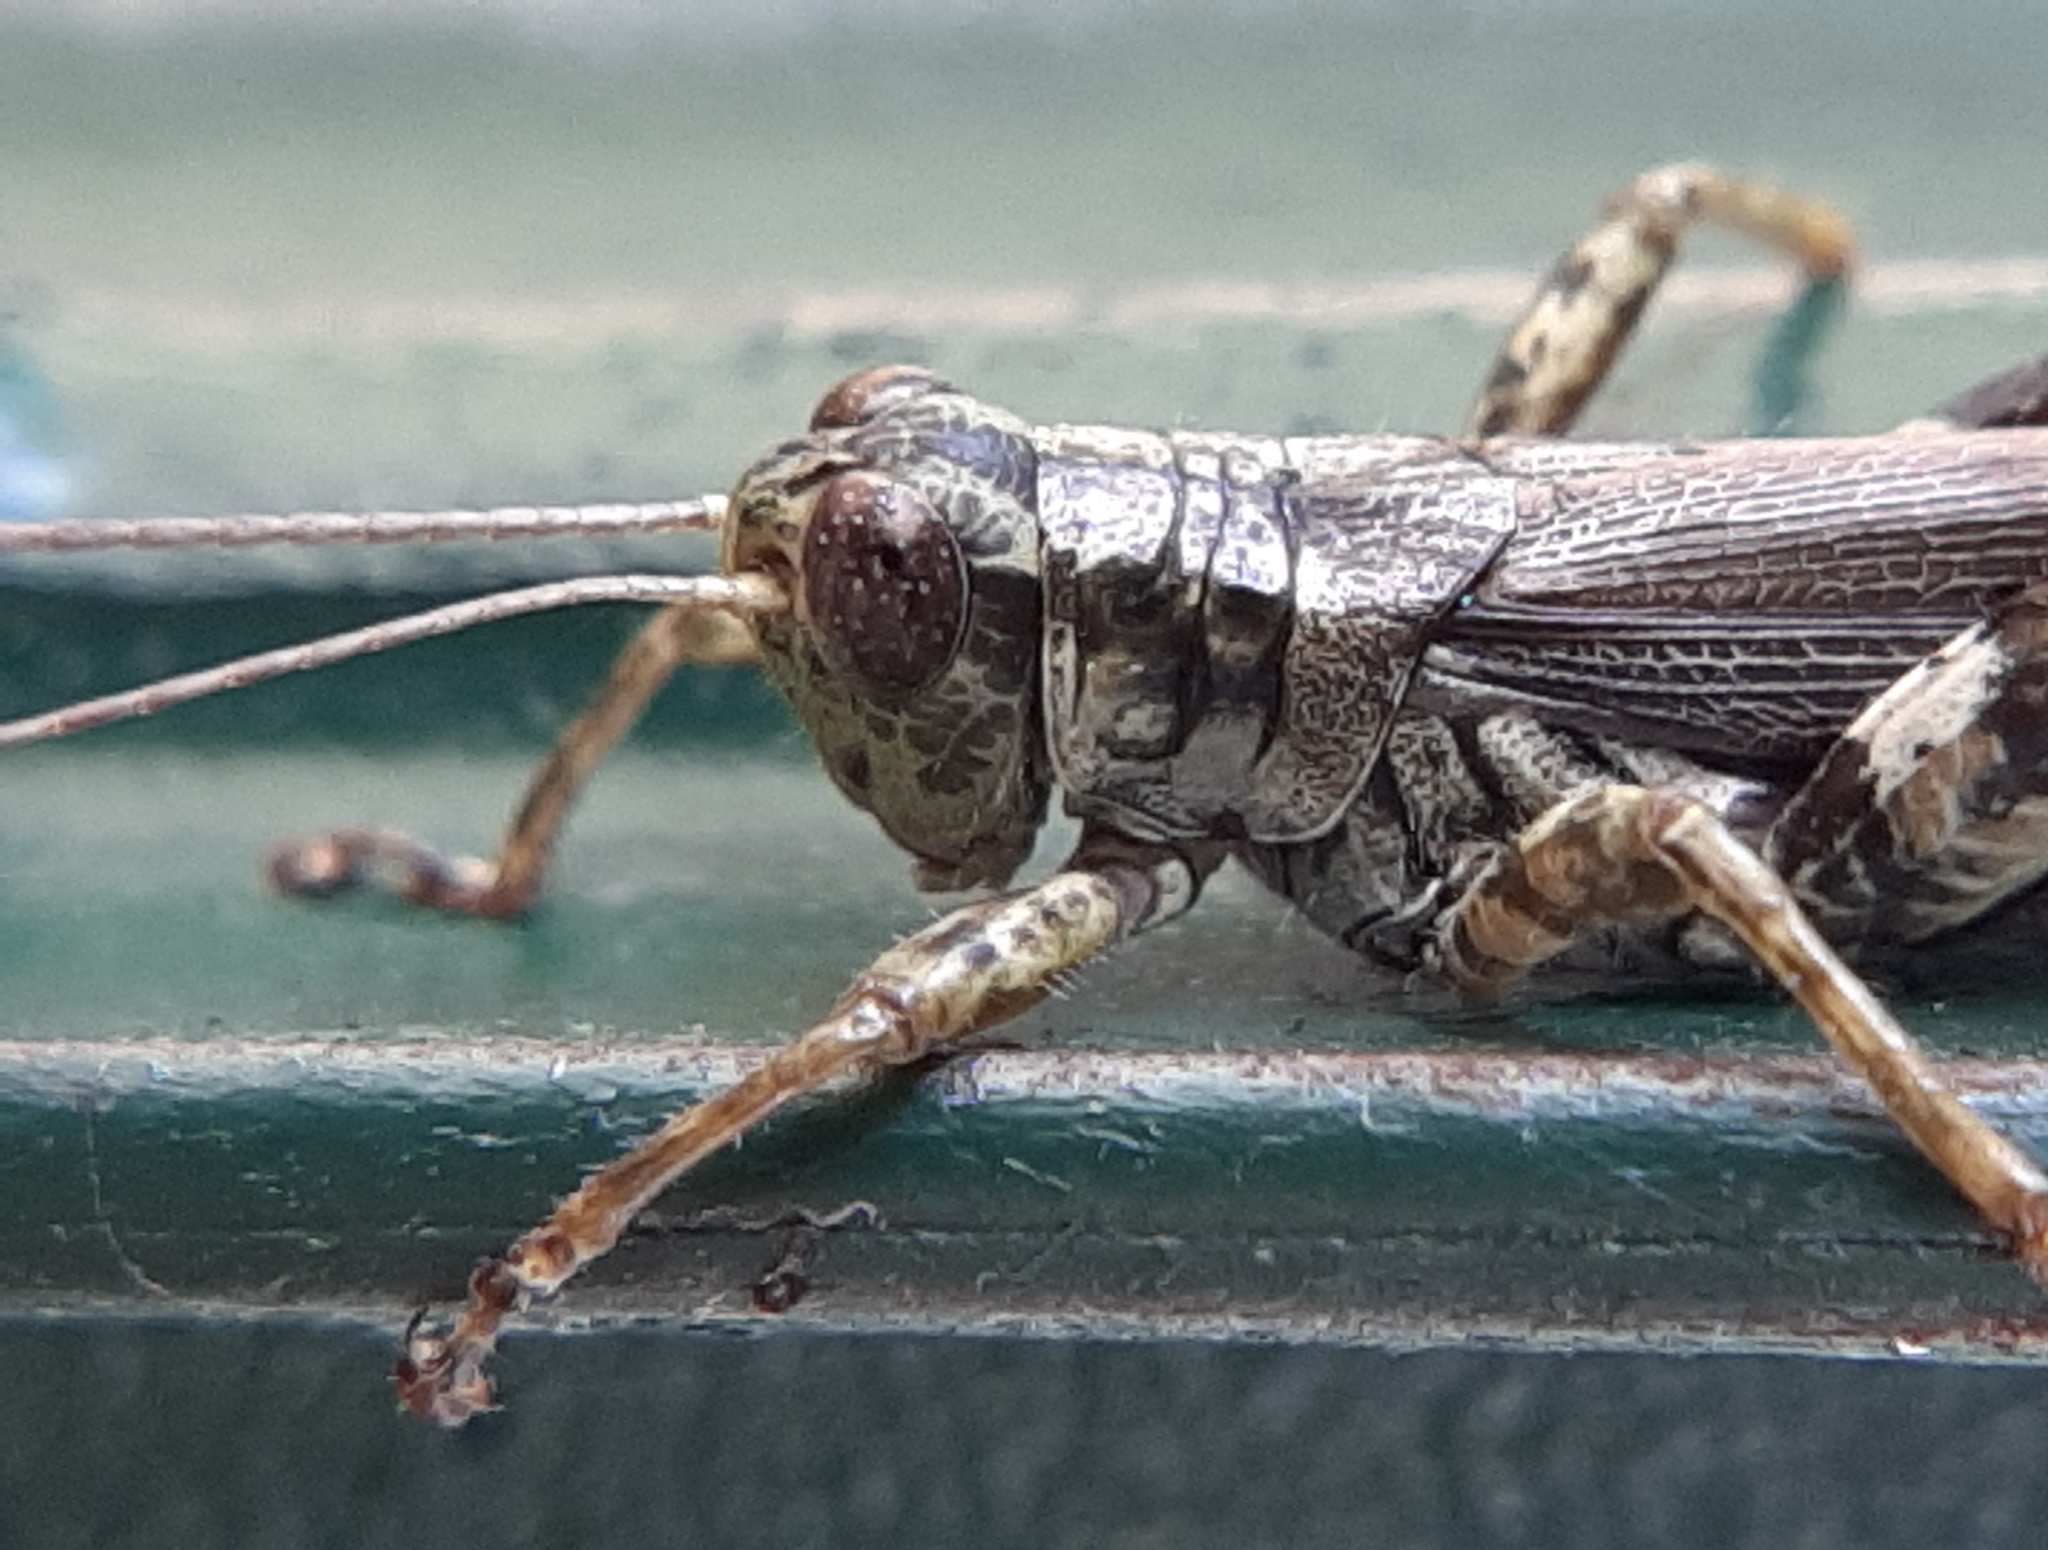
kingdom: Animalia
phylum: Arthropoda
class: Insecta
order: Orthoptera
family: Acrididae
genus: Melanoplus
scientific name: Melanoplus punctulatus
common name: Pine-tree spur-throat grasshopper
